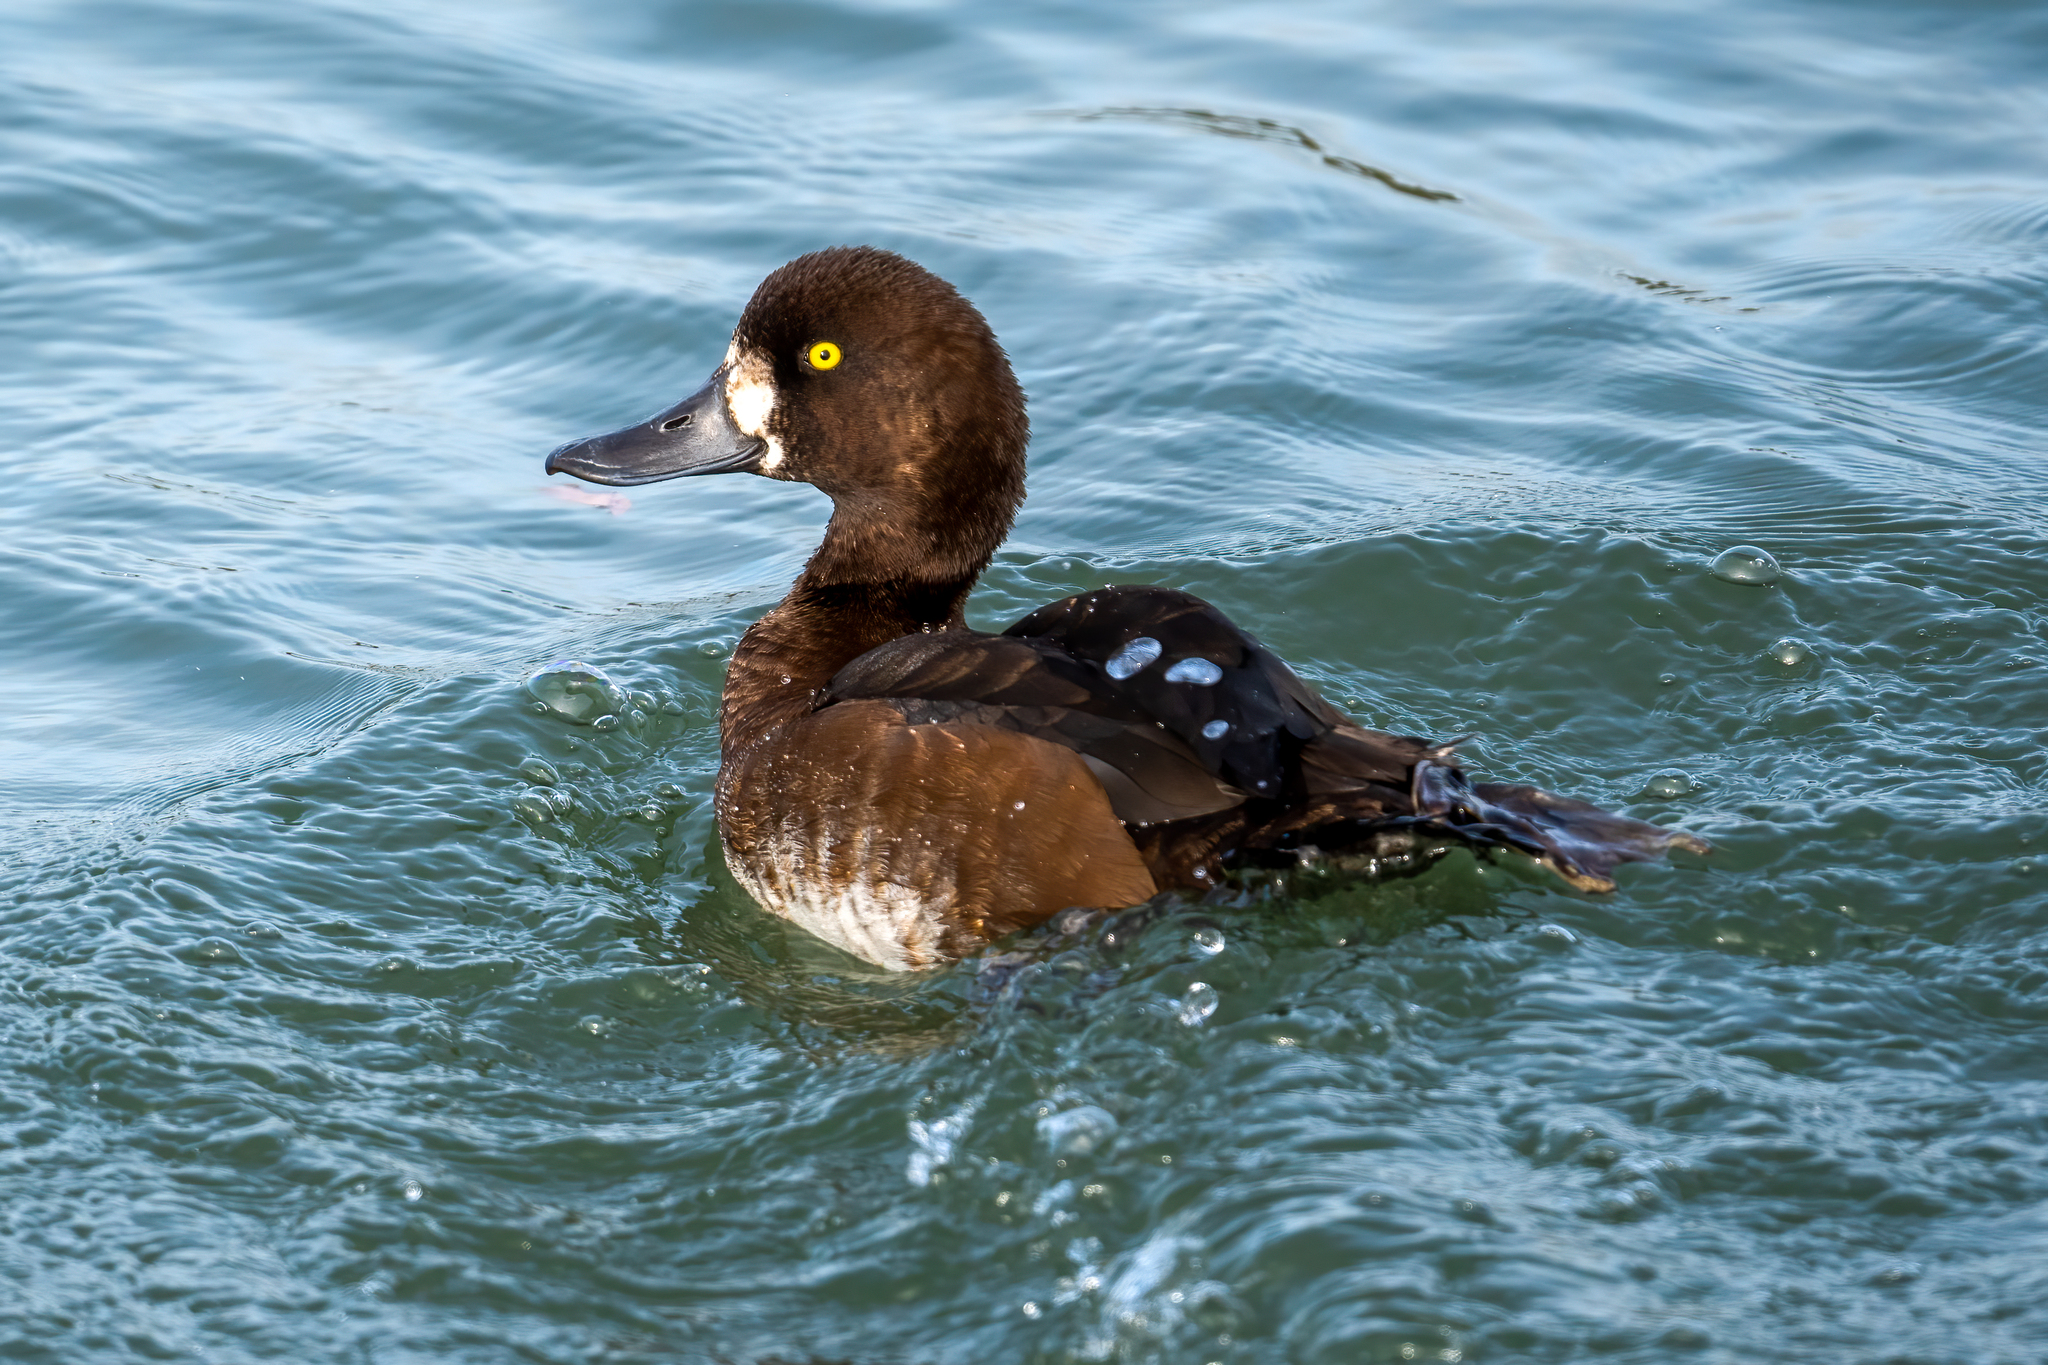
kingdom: Animalia
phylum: Chordata
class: Aves
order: Anseriformes
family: Anatidae
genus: Aythya
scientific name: Aythya marila
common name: Greater scaup
